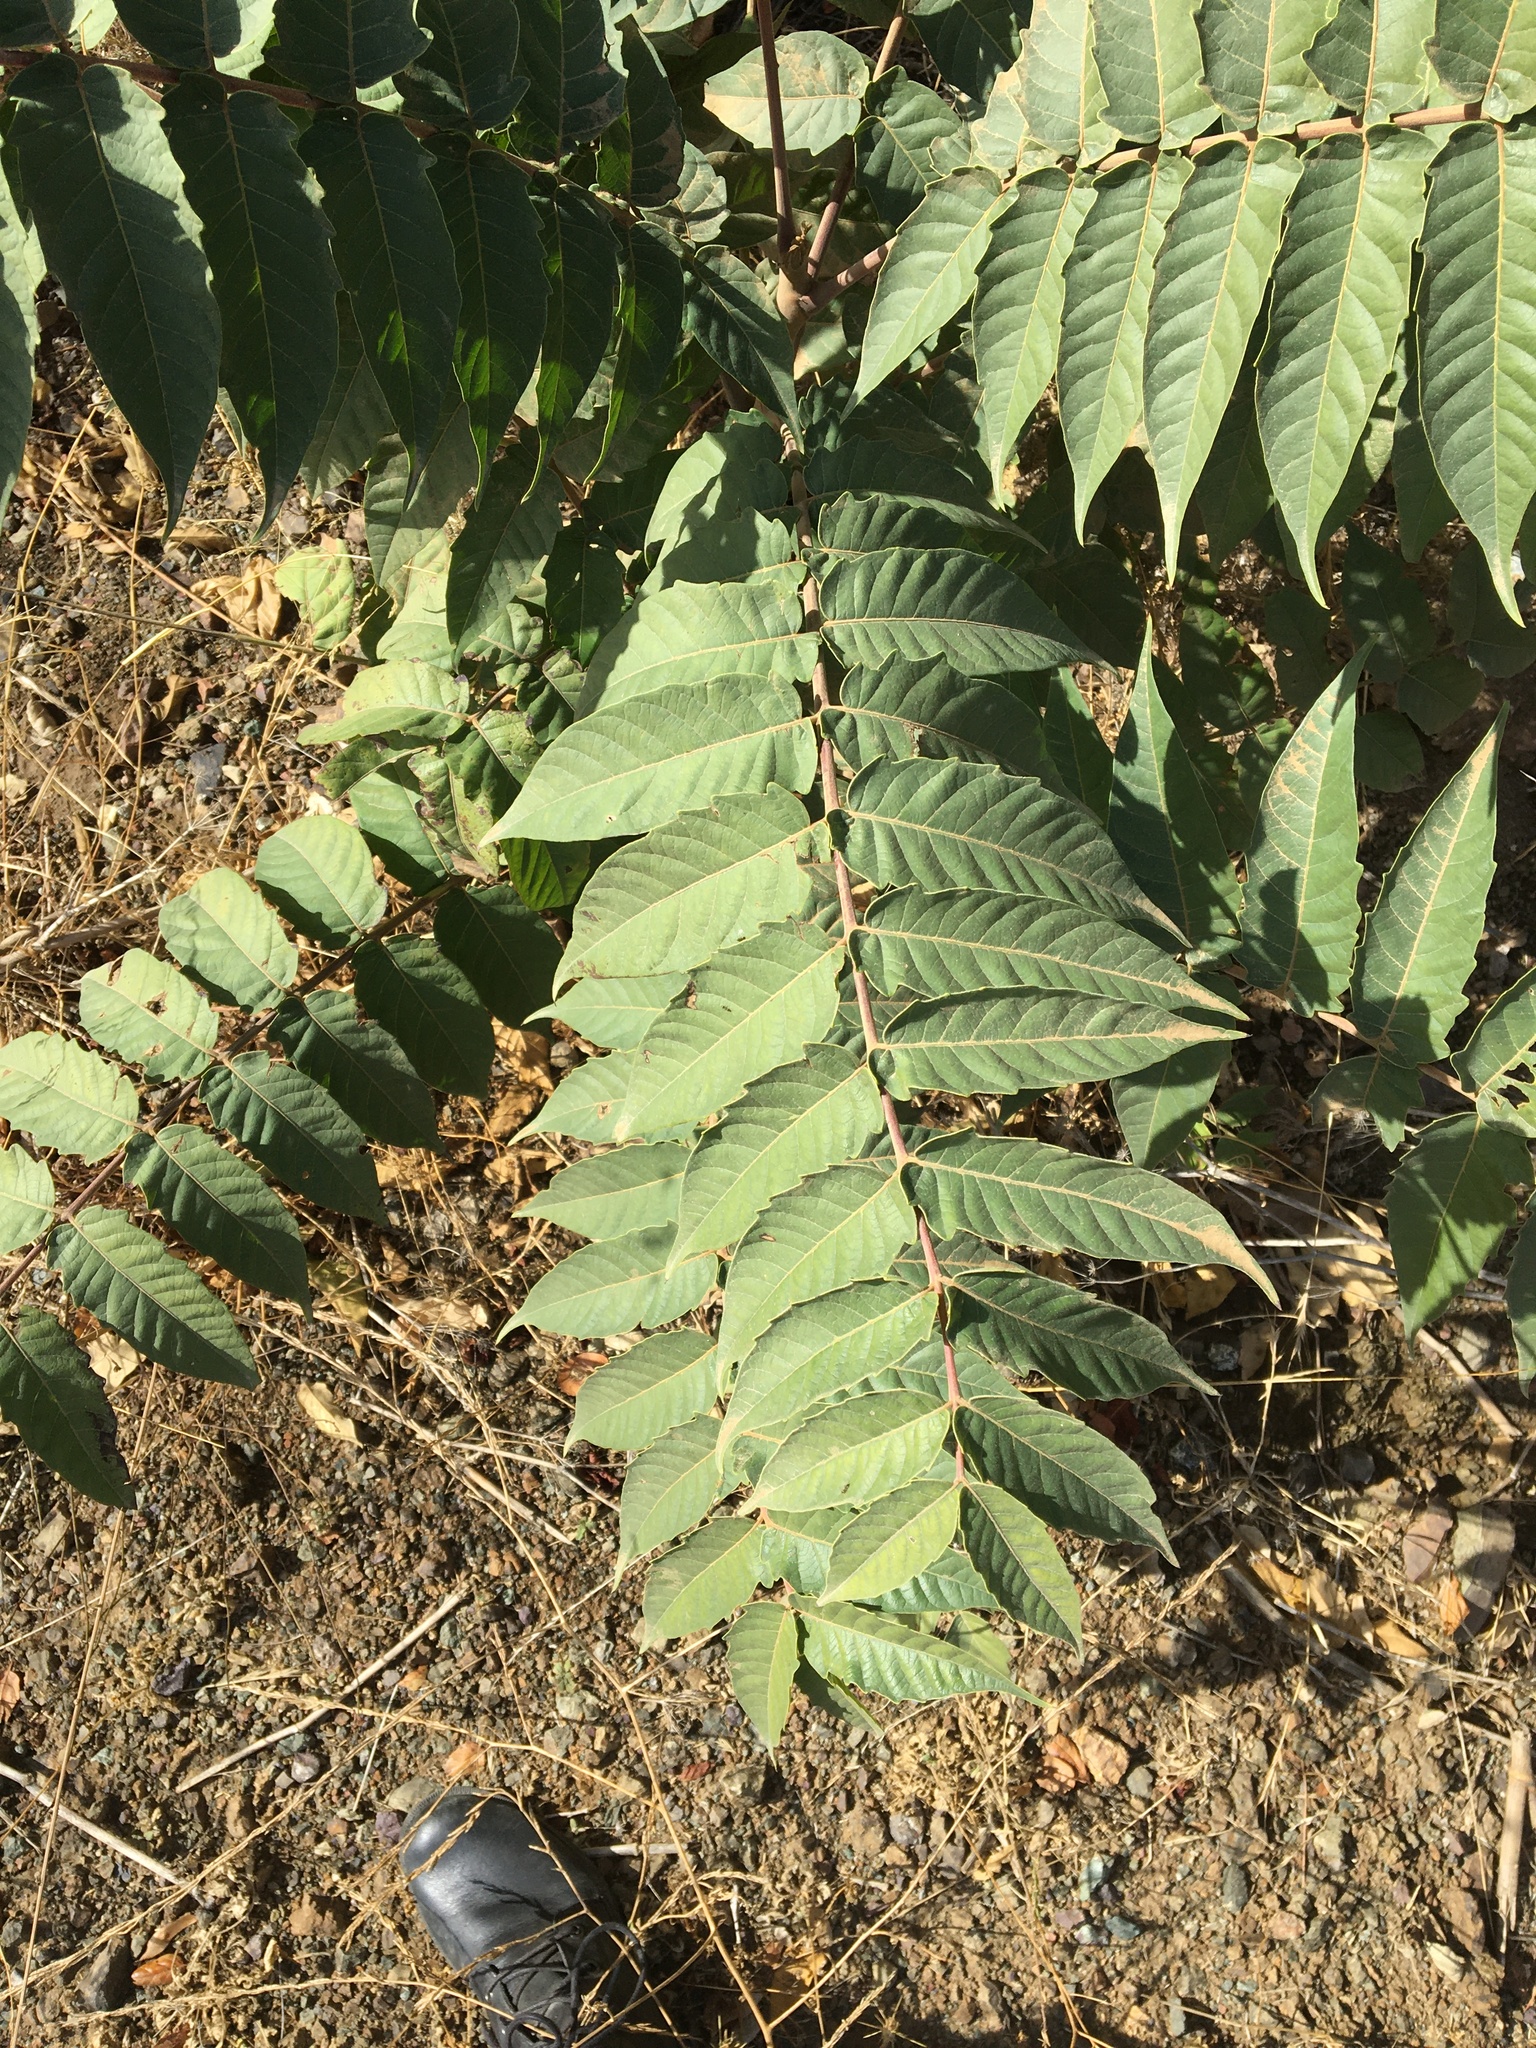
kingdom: Plantae
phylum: Tracheophyta
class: Magnoliopsida
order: Sapindales
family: Simaroubaceae
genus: Ailanthus
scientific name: Ailanthus altissima
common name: Tree-of-heaven
